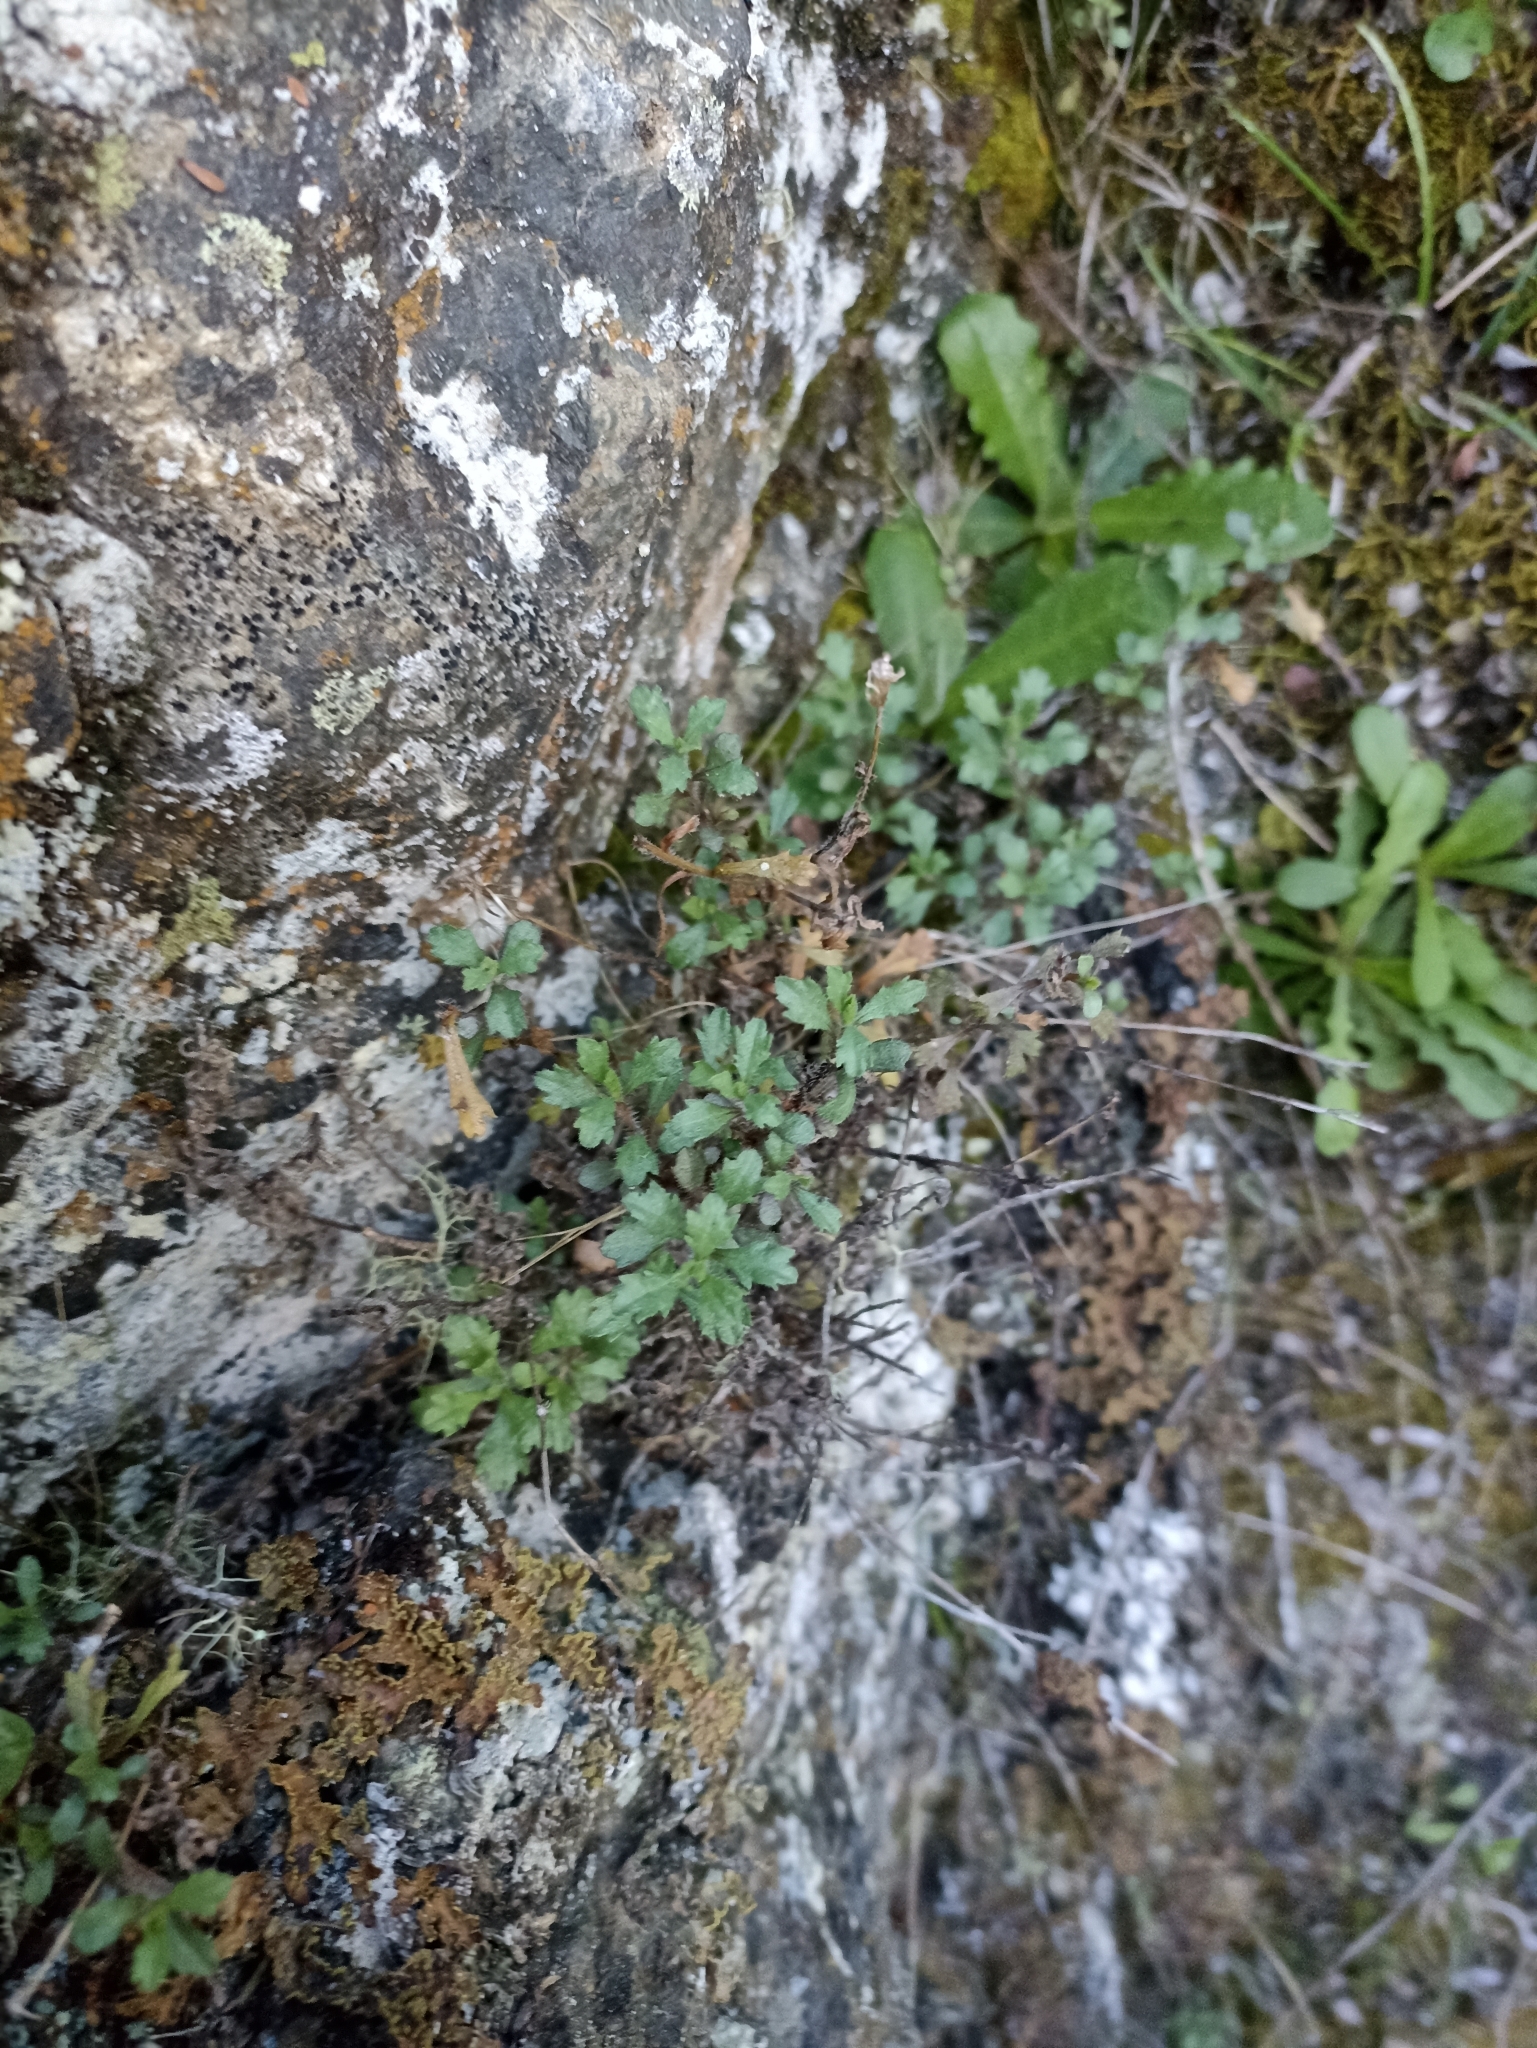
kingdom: Plantae
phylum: Tracheophyta
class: Magnoliopsida
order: Asterales
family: Asteraceae
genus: Vittadinia
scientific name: Vittadinia australis
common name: White fuzzweed
